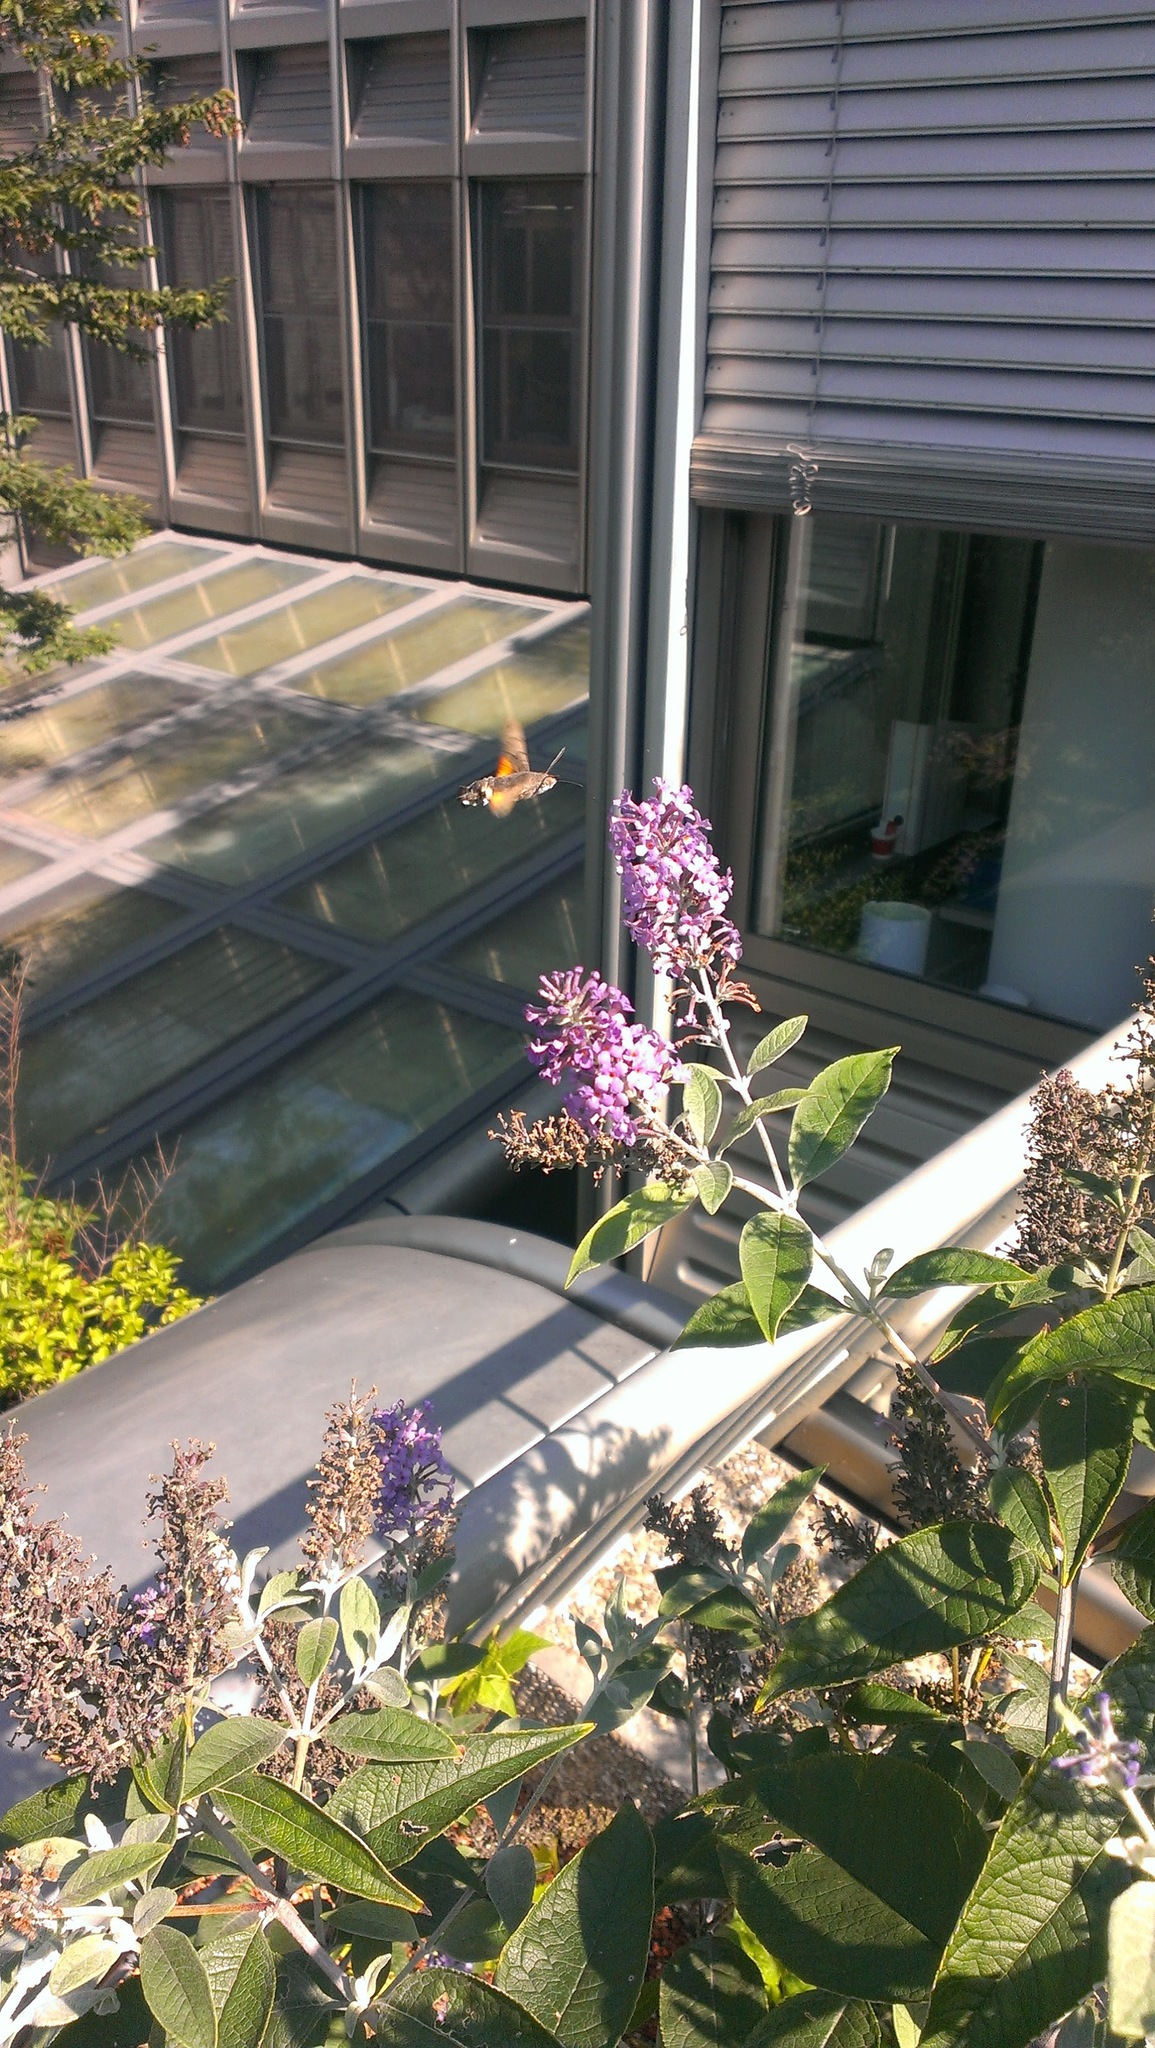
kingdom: Animalia
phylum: Arthropoda
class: Insecta
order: Lepidoptera
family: Sphingidae
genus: Macroglossum
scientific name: Macroglossum stellatarum
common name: Humming-bird hawk-moth
